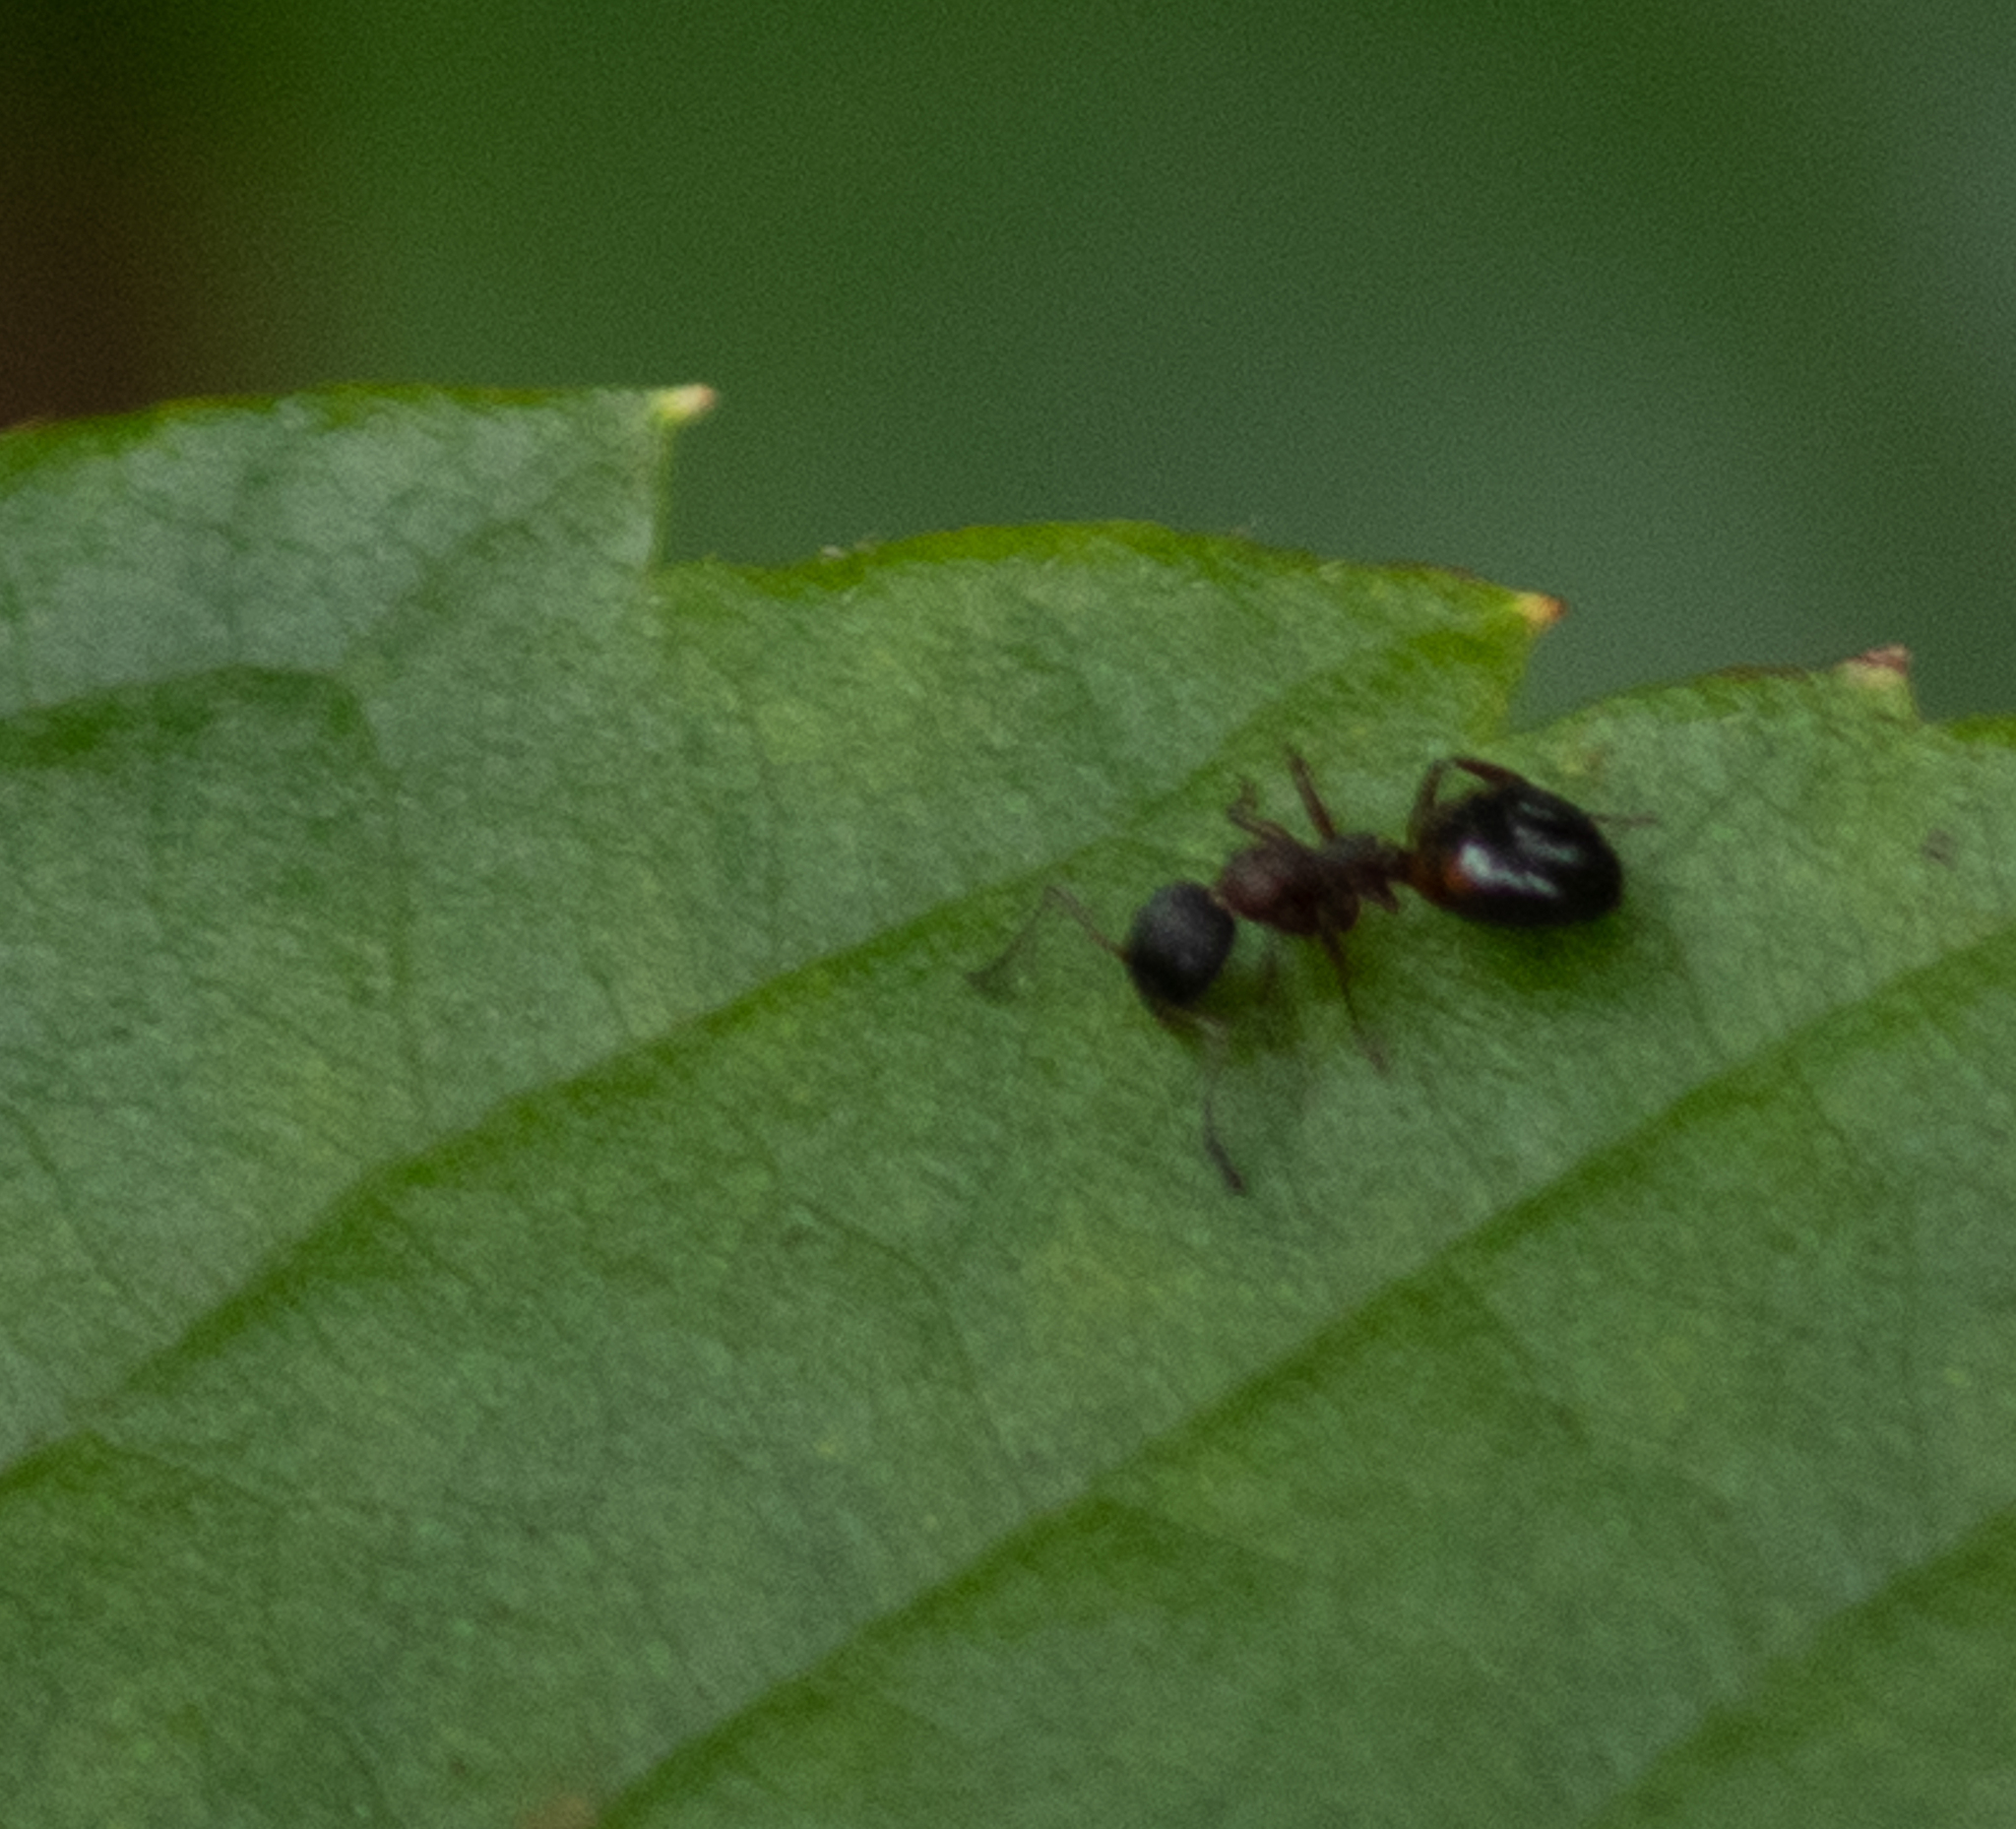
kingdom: Animalia
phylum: Arthropoda
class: Insecta
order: Hymenoptera
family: Formicidae
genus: Dolichoderus
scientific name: Dolichoderus plagiatus
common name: Mottled dolichoderus
